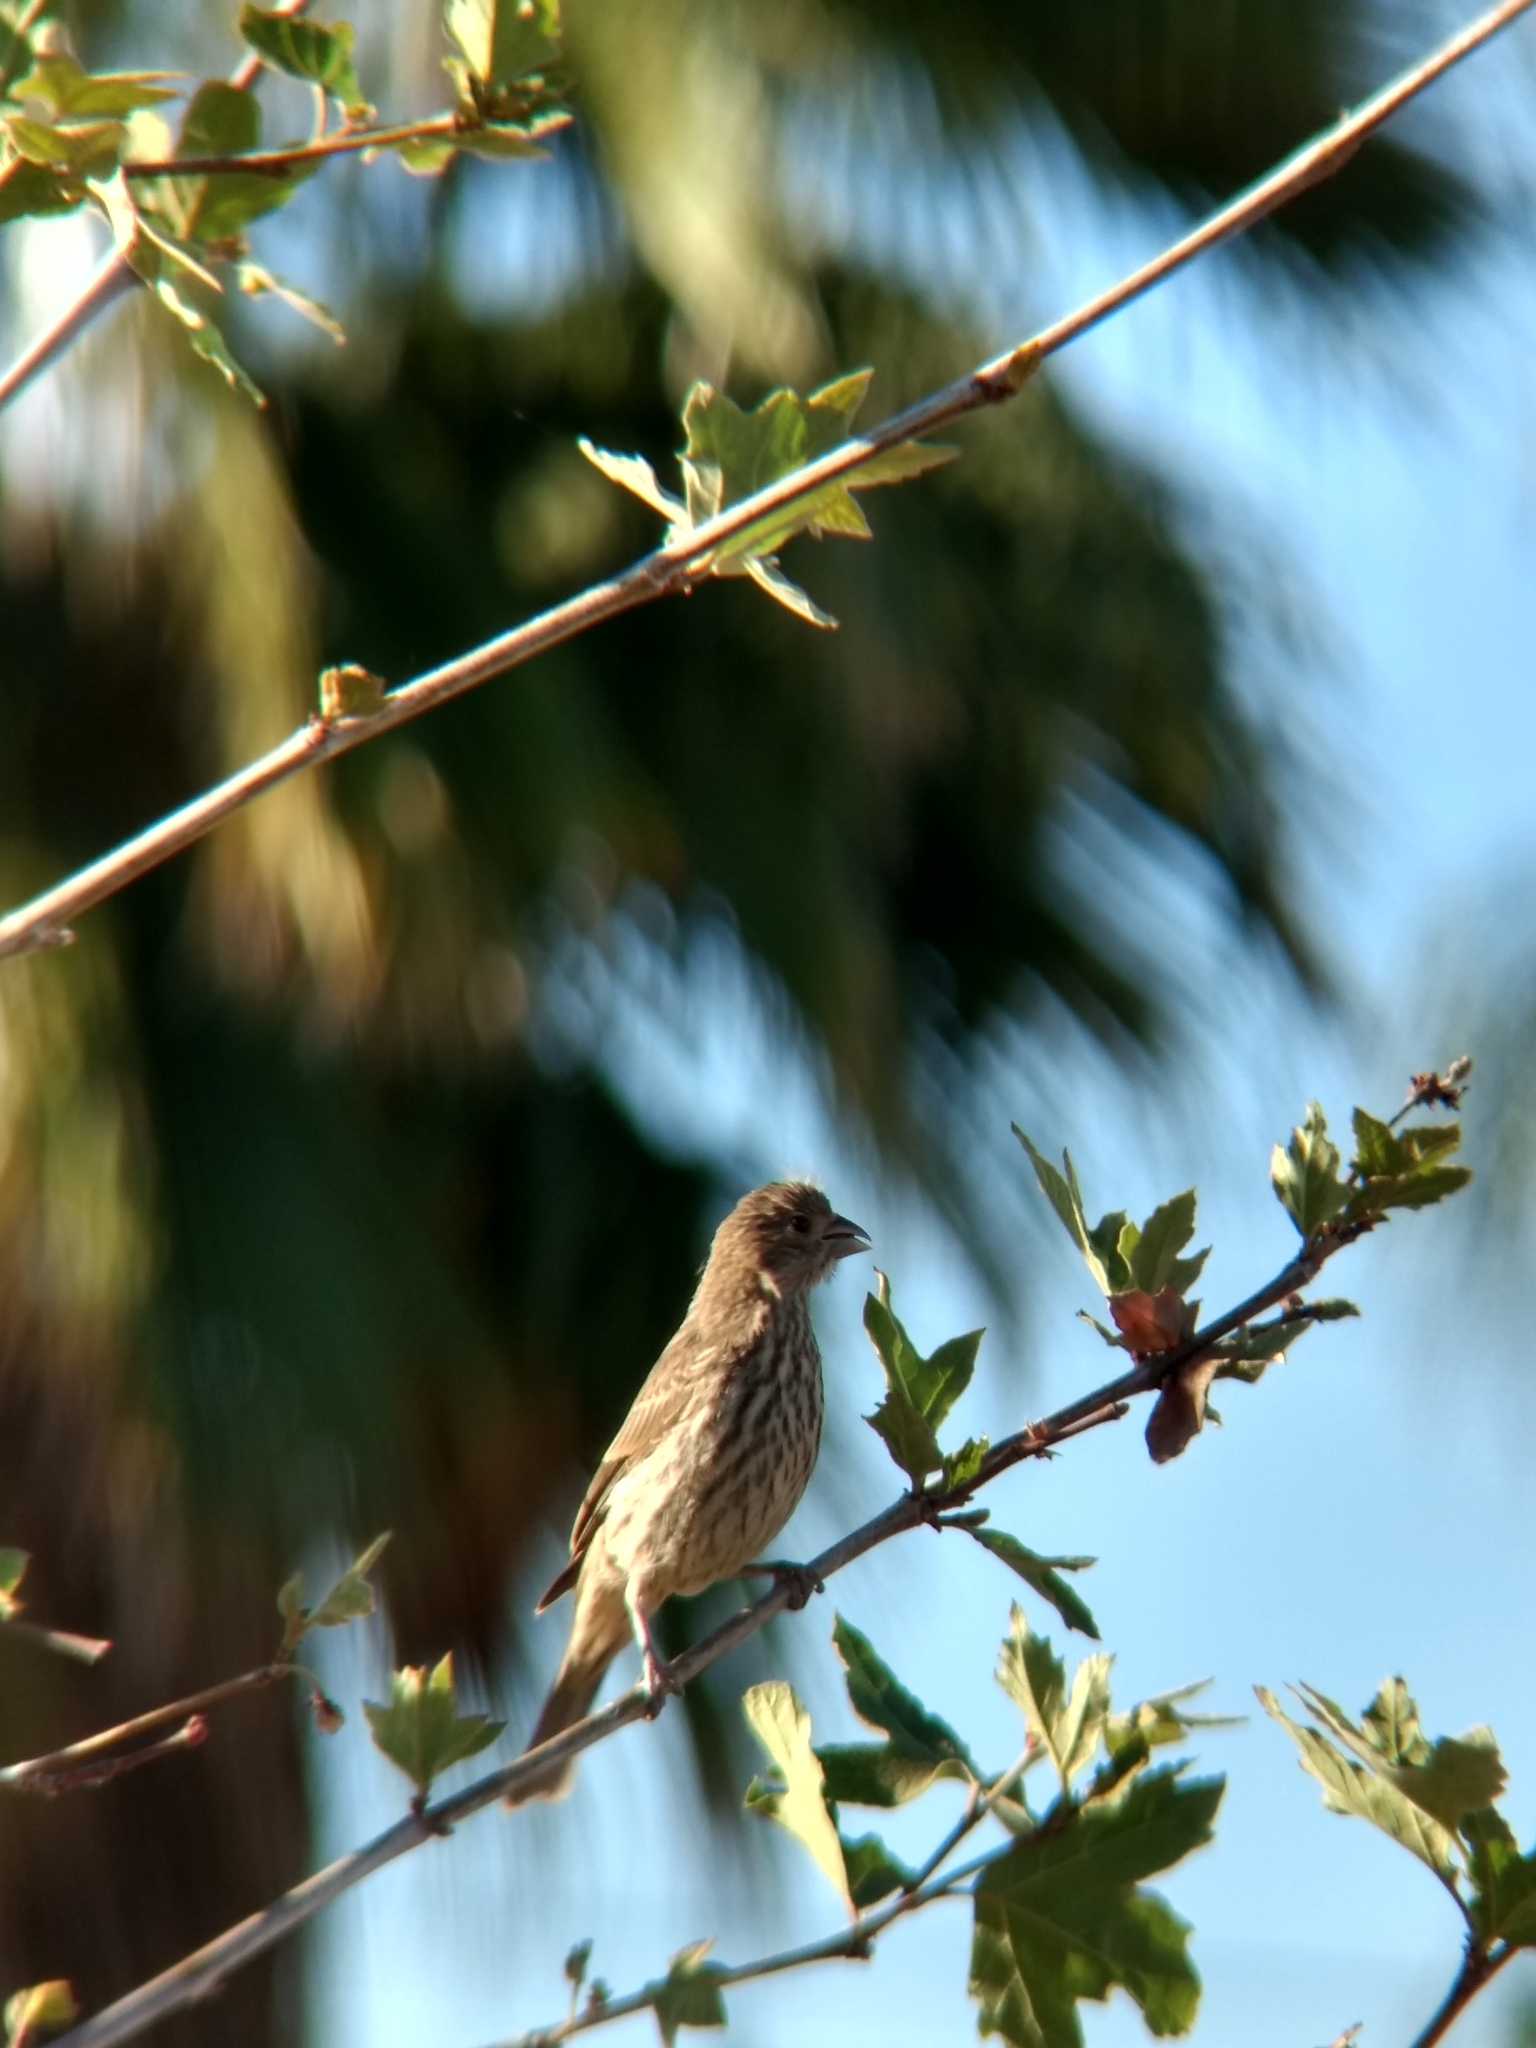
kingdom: Animalia
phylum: Chordata
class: Aves
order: Passeriformes
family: Fringillidae
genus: Haemorhous
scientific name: Haemorhous mexicanus
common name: House finch
